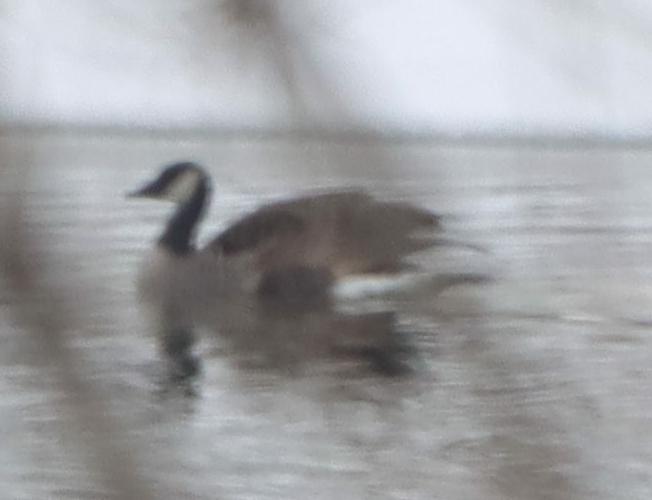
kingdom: Animalia
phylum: Chordata
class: Aves
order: Anseriformes
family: Anatidae
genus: Branta
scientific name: Branta canadensis
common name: Canada goose
